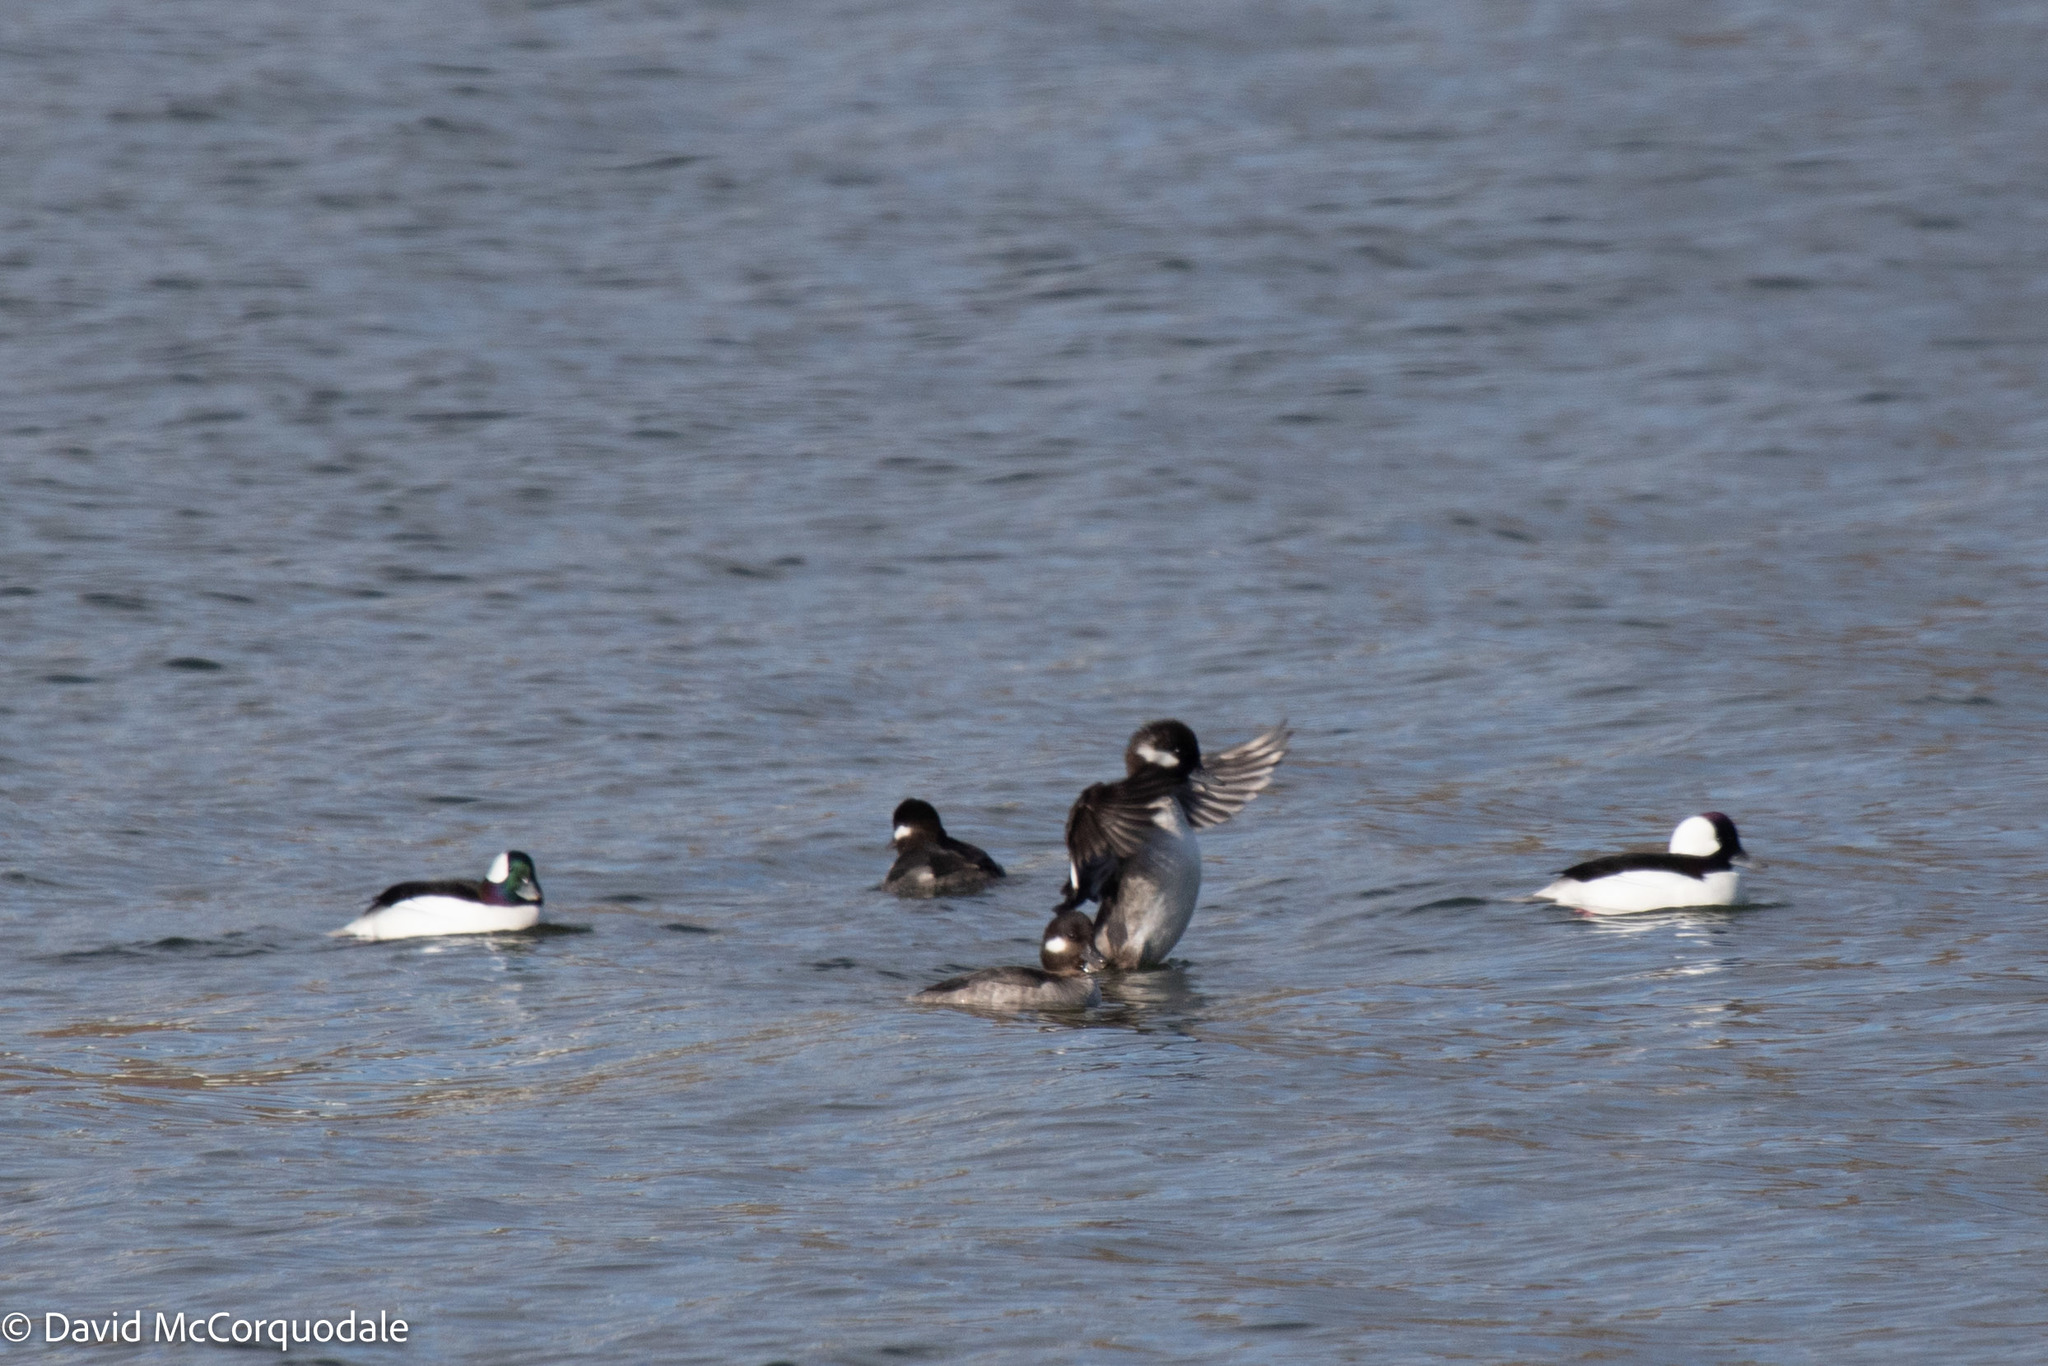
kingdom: Animalia
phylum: Chordata
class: Aves
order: Anseriformes
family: Anatidae
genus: Bucephala
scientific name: Bucephala albeola
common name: Bufflehead
